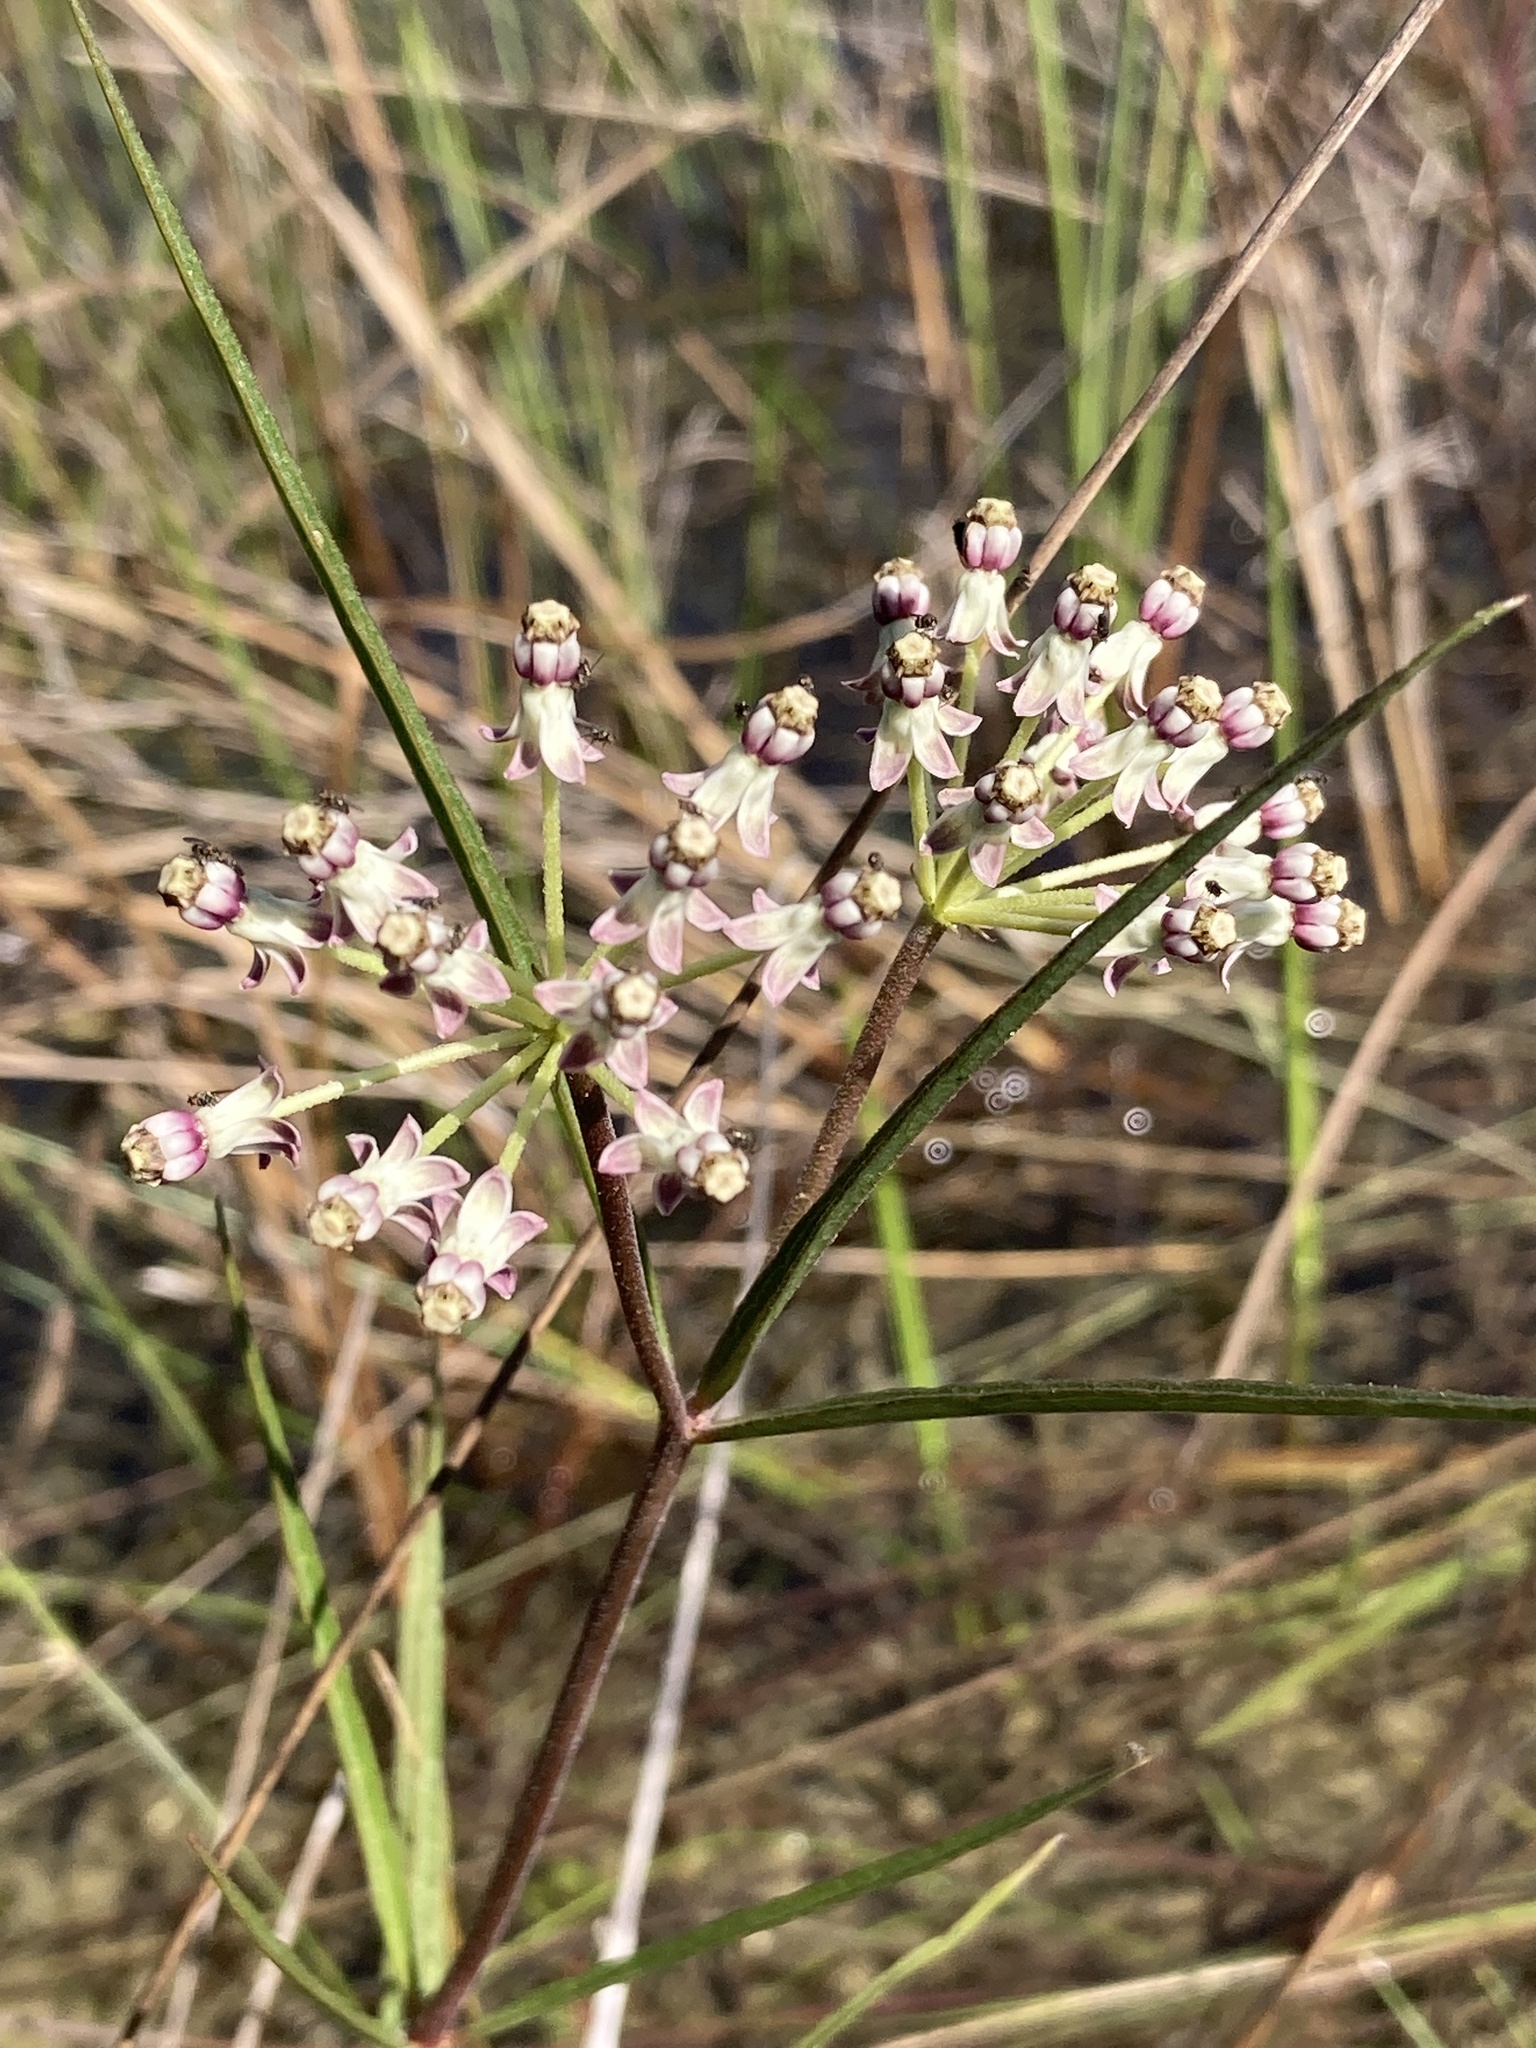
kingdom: Plantae
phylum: Tracheophyta
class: Magnoliopsida
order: Gentianales
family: Apocynaceae
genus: Asclepias
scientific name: Asclepias longifolia
